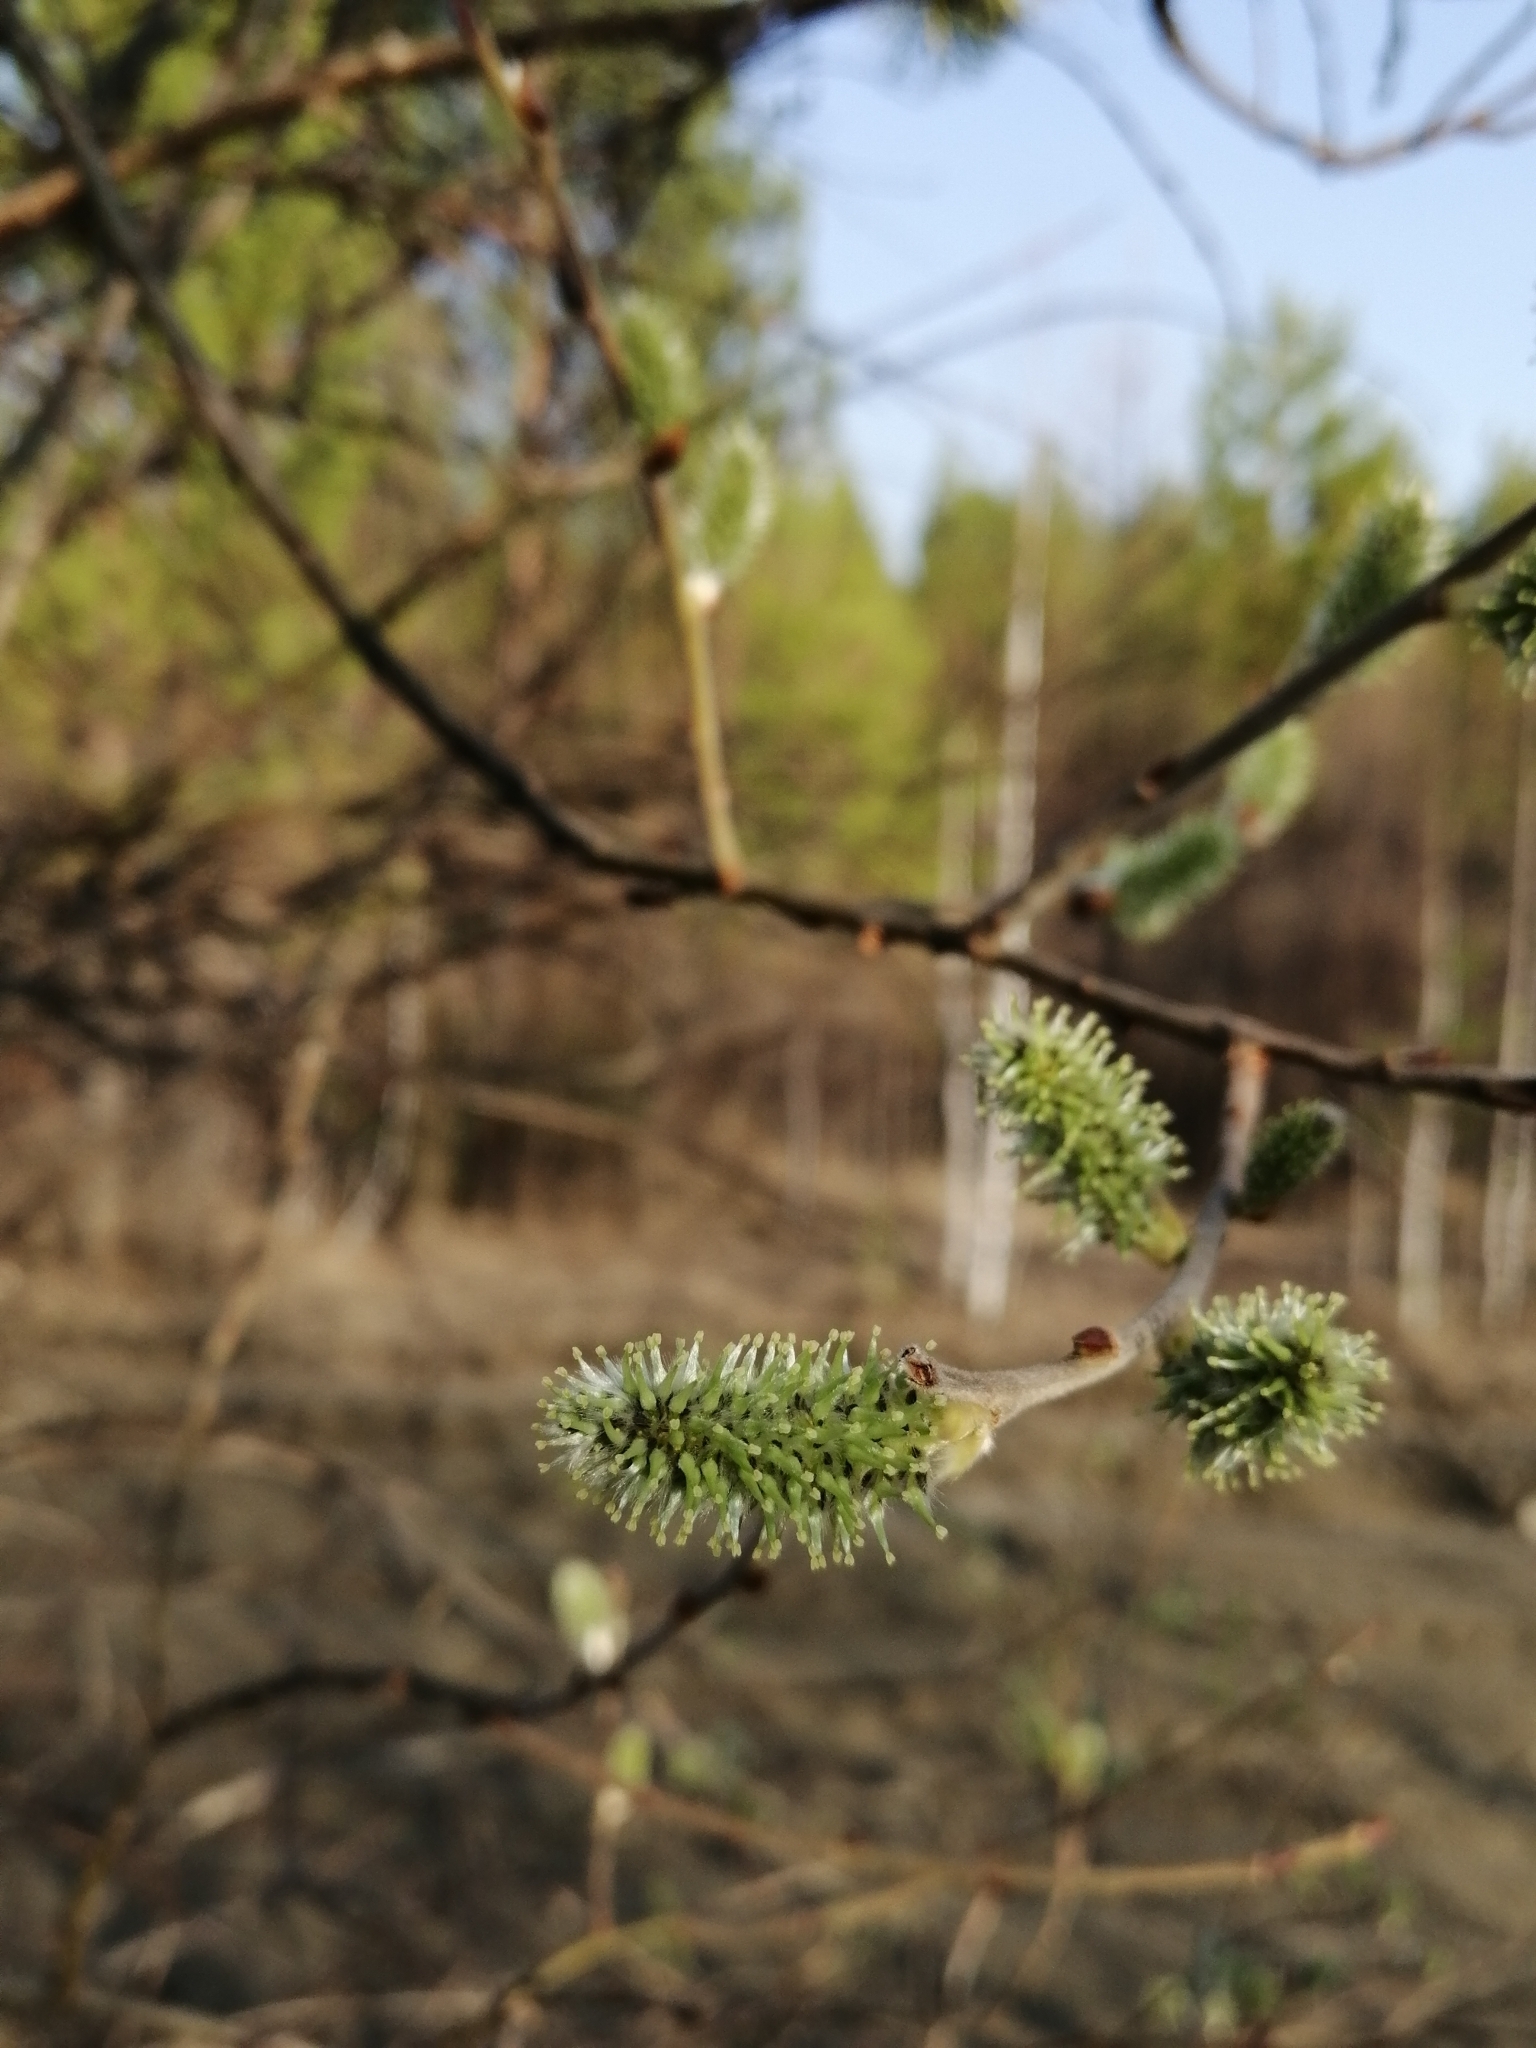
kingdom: Plantae
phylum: Tracheophyta
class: Magnoliopsida
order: Malpighiales
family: Salicaceae
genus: Salix
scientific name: Salix caprea
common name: Goat willow
